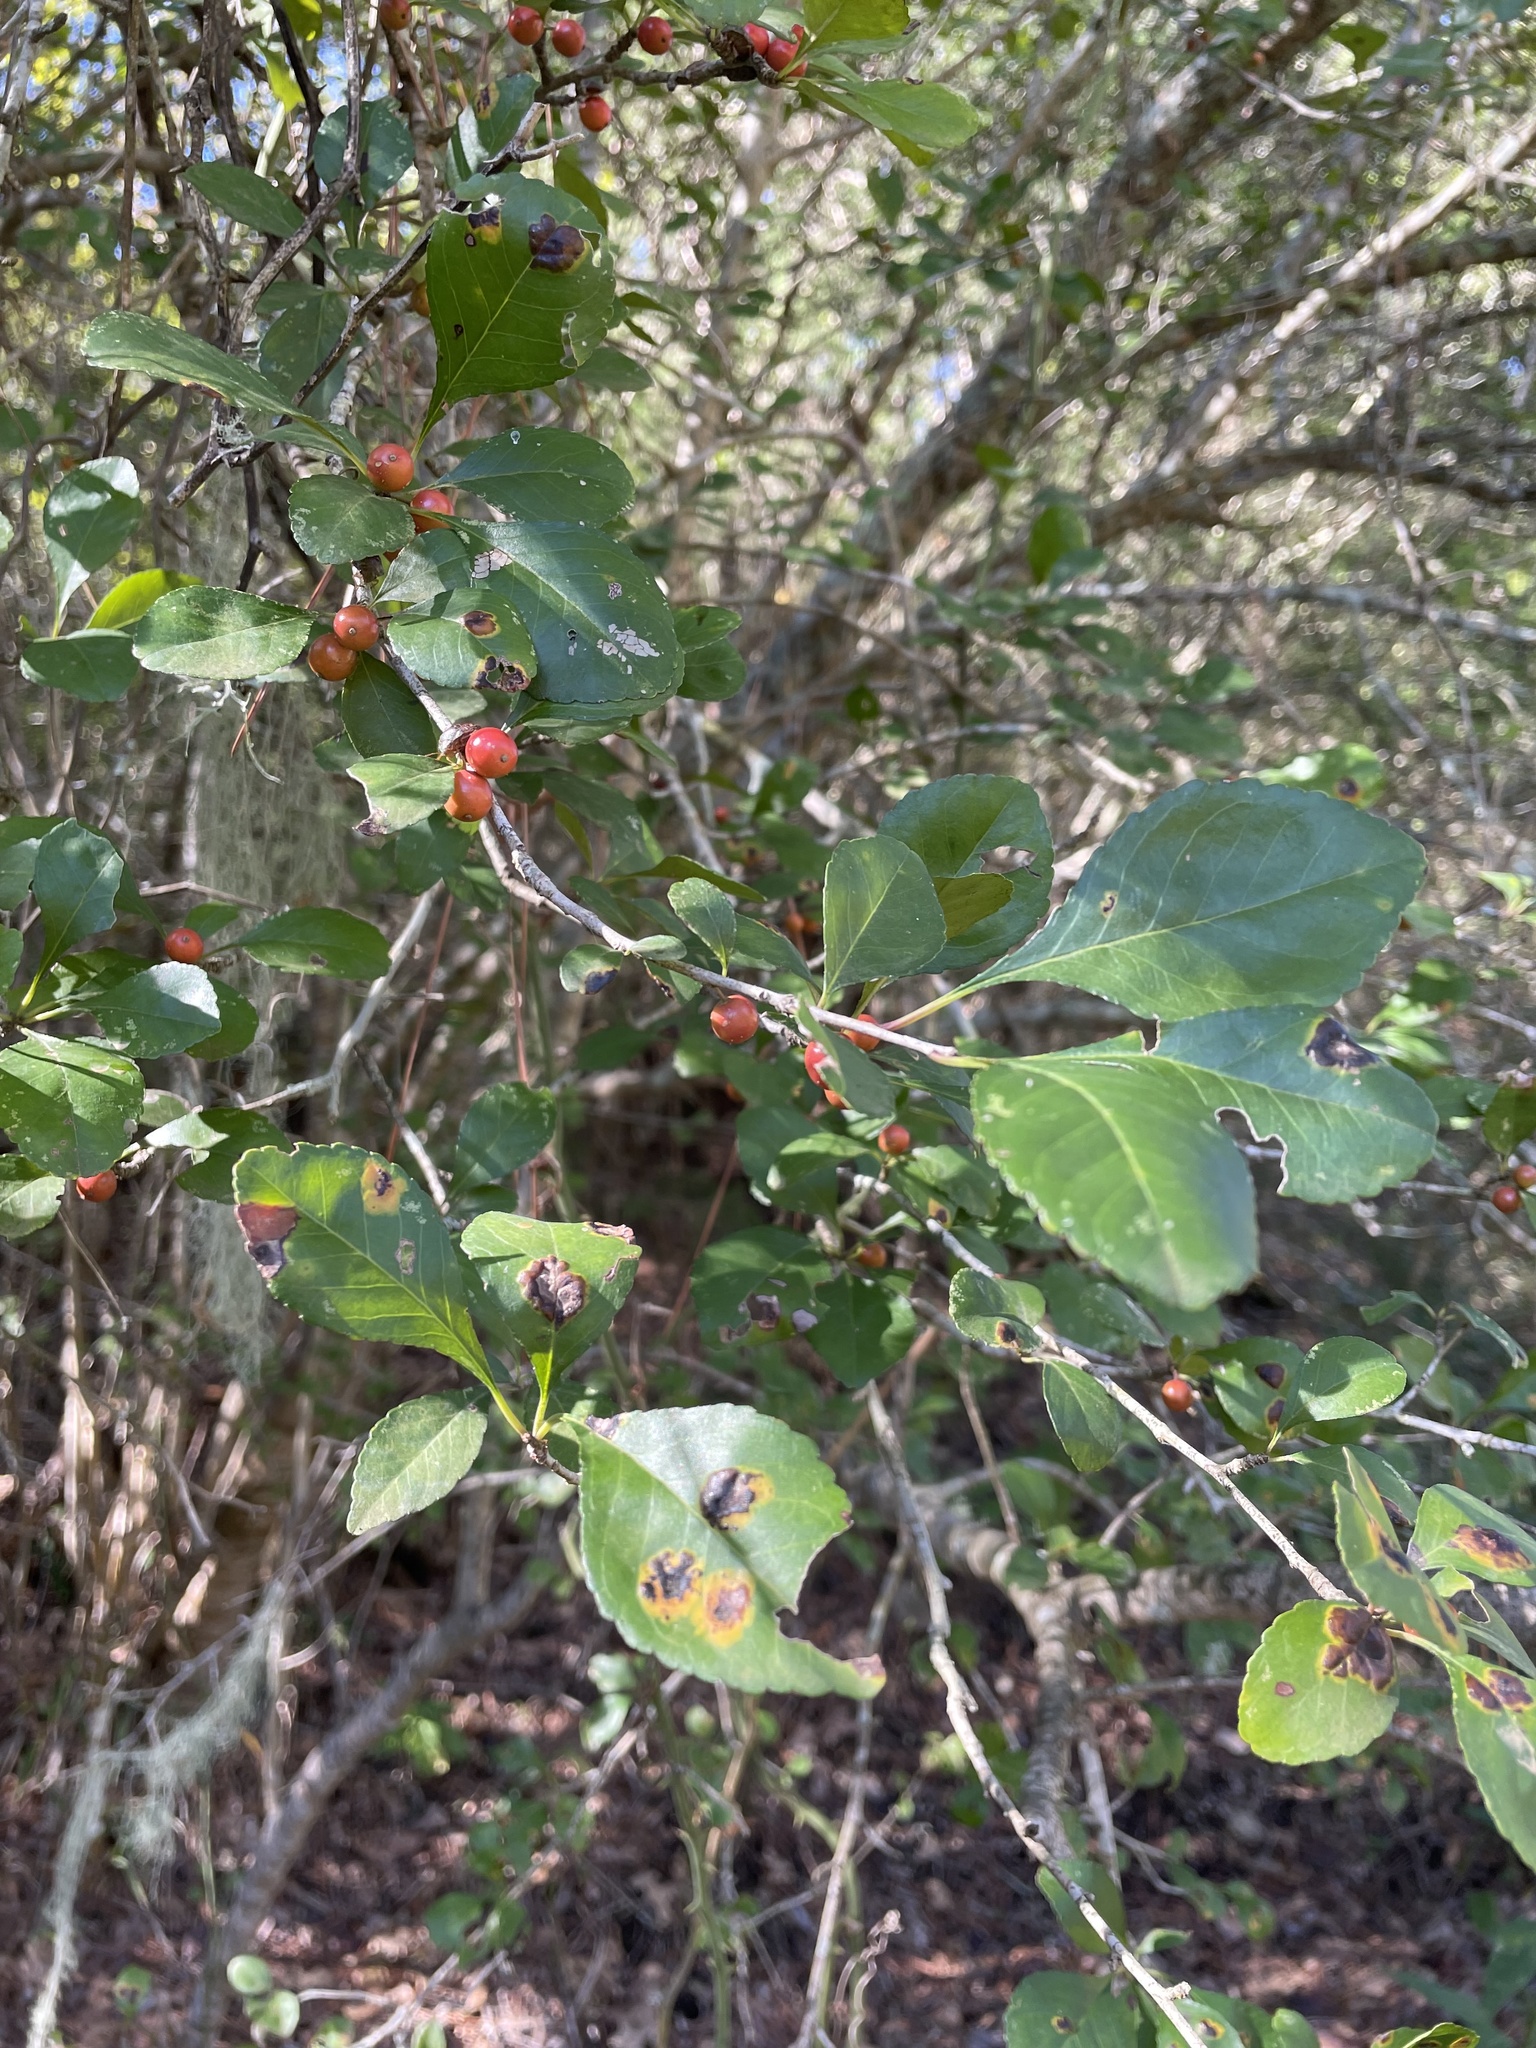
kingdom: Plantae
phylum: Tracheophyta
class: Magnoliopsida
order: Aquifoliales
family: Aquifoliaceae
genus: Ilex
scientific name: Ilex decidua
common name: Possum-haw
